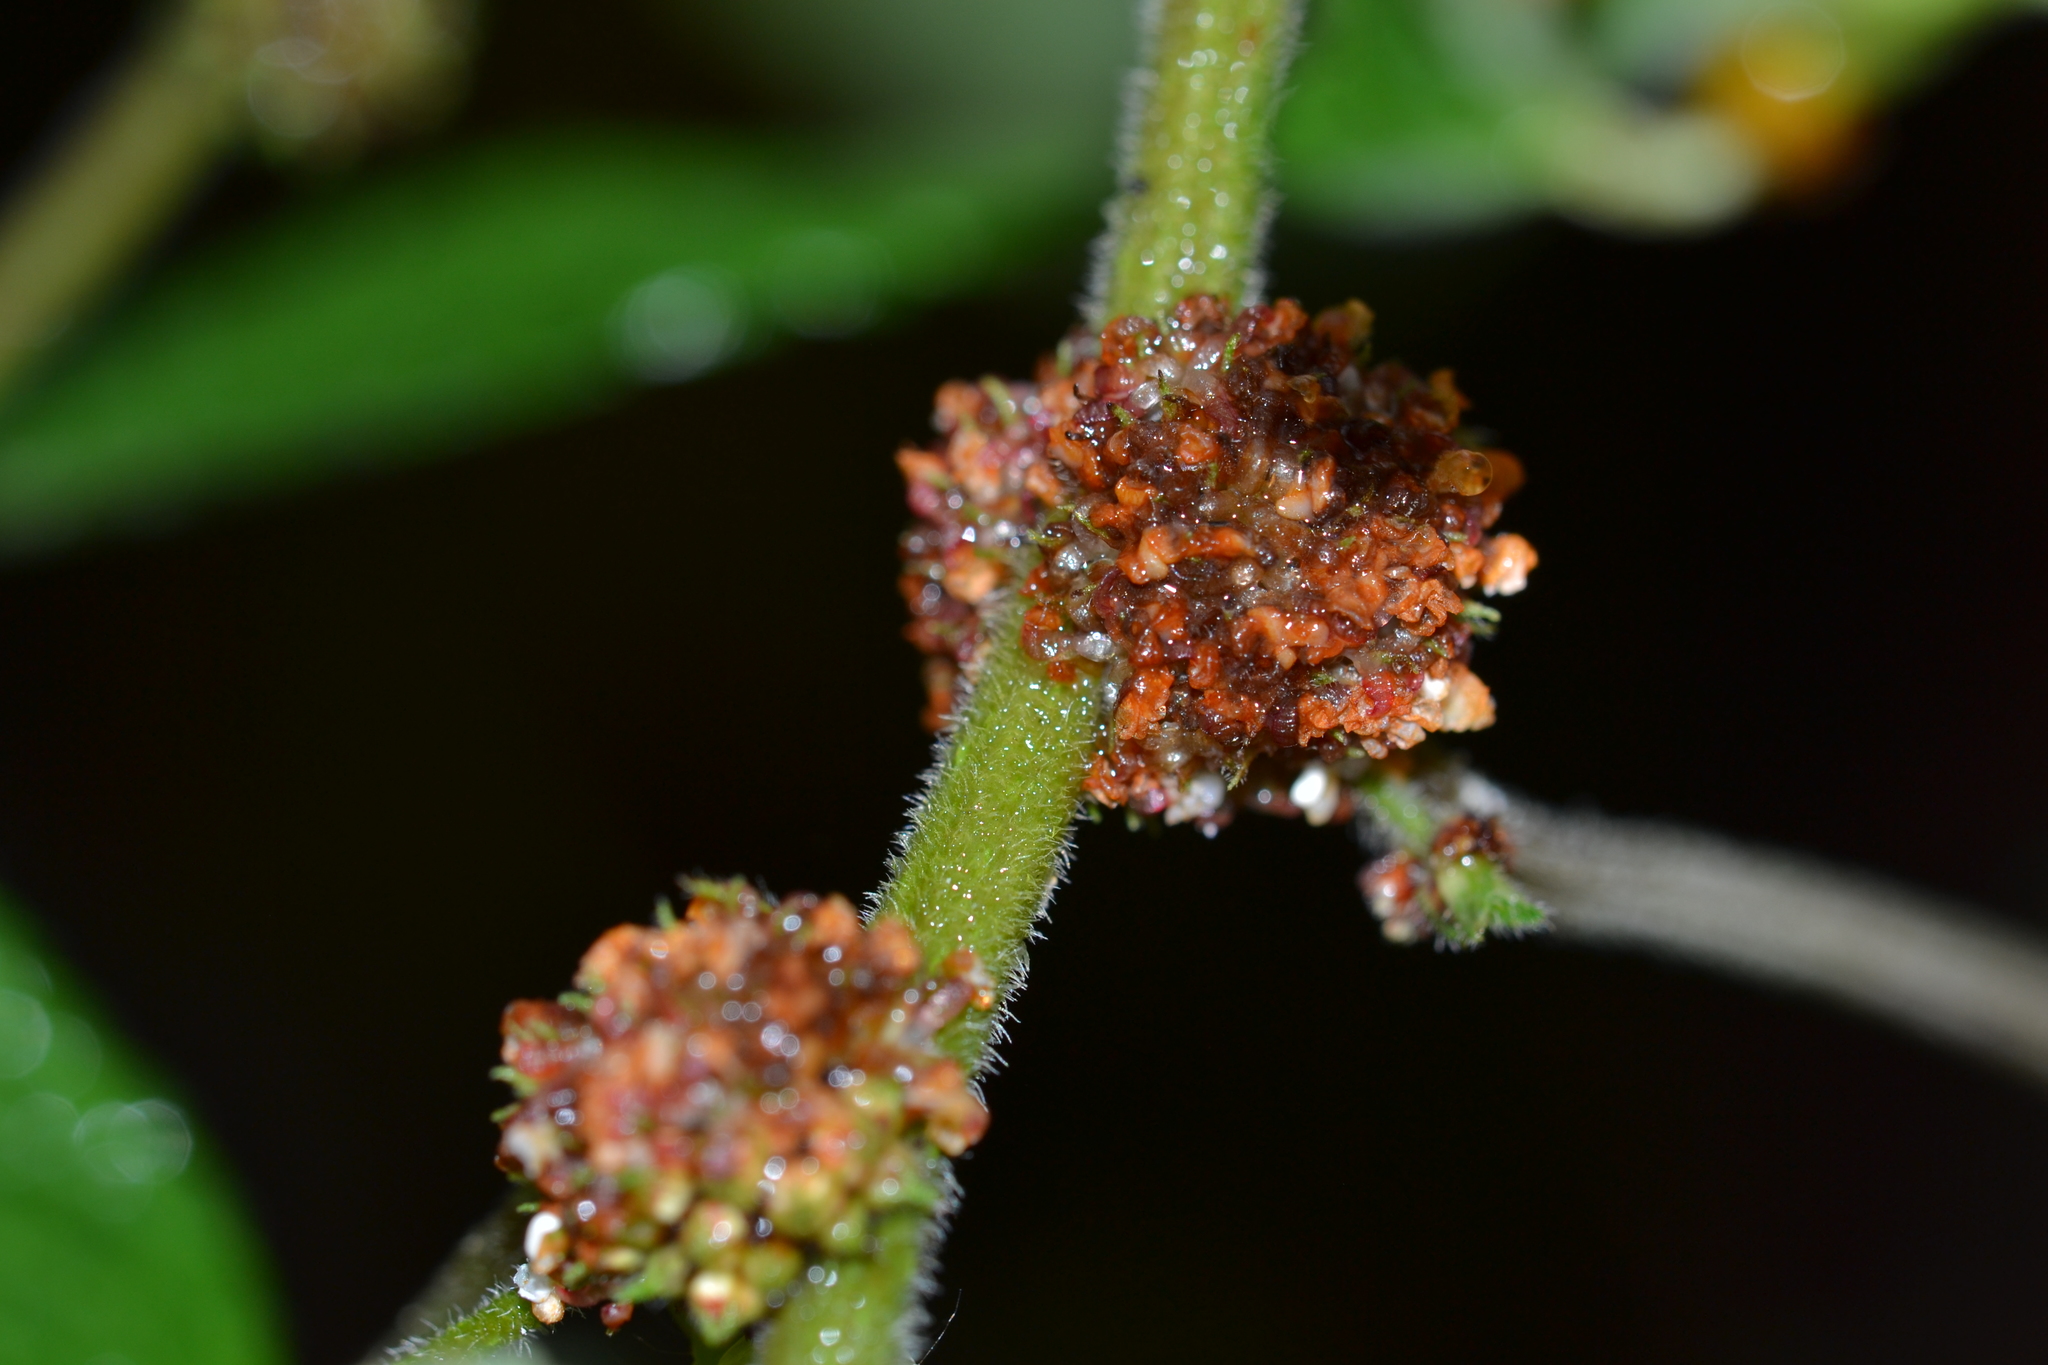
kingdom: Plantae
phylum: Tracheophyta
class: Magnoliopsida
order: Rosales
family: Urticaceae
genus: Pipturus
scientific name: Pipturus albidus
